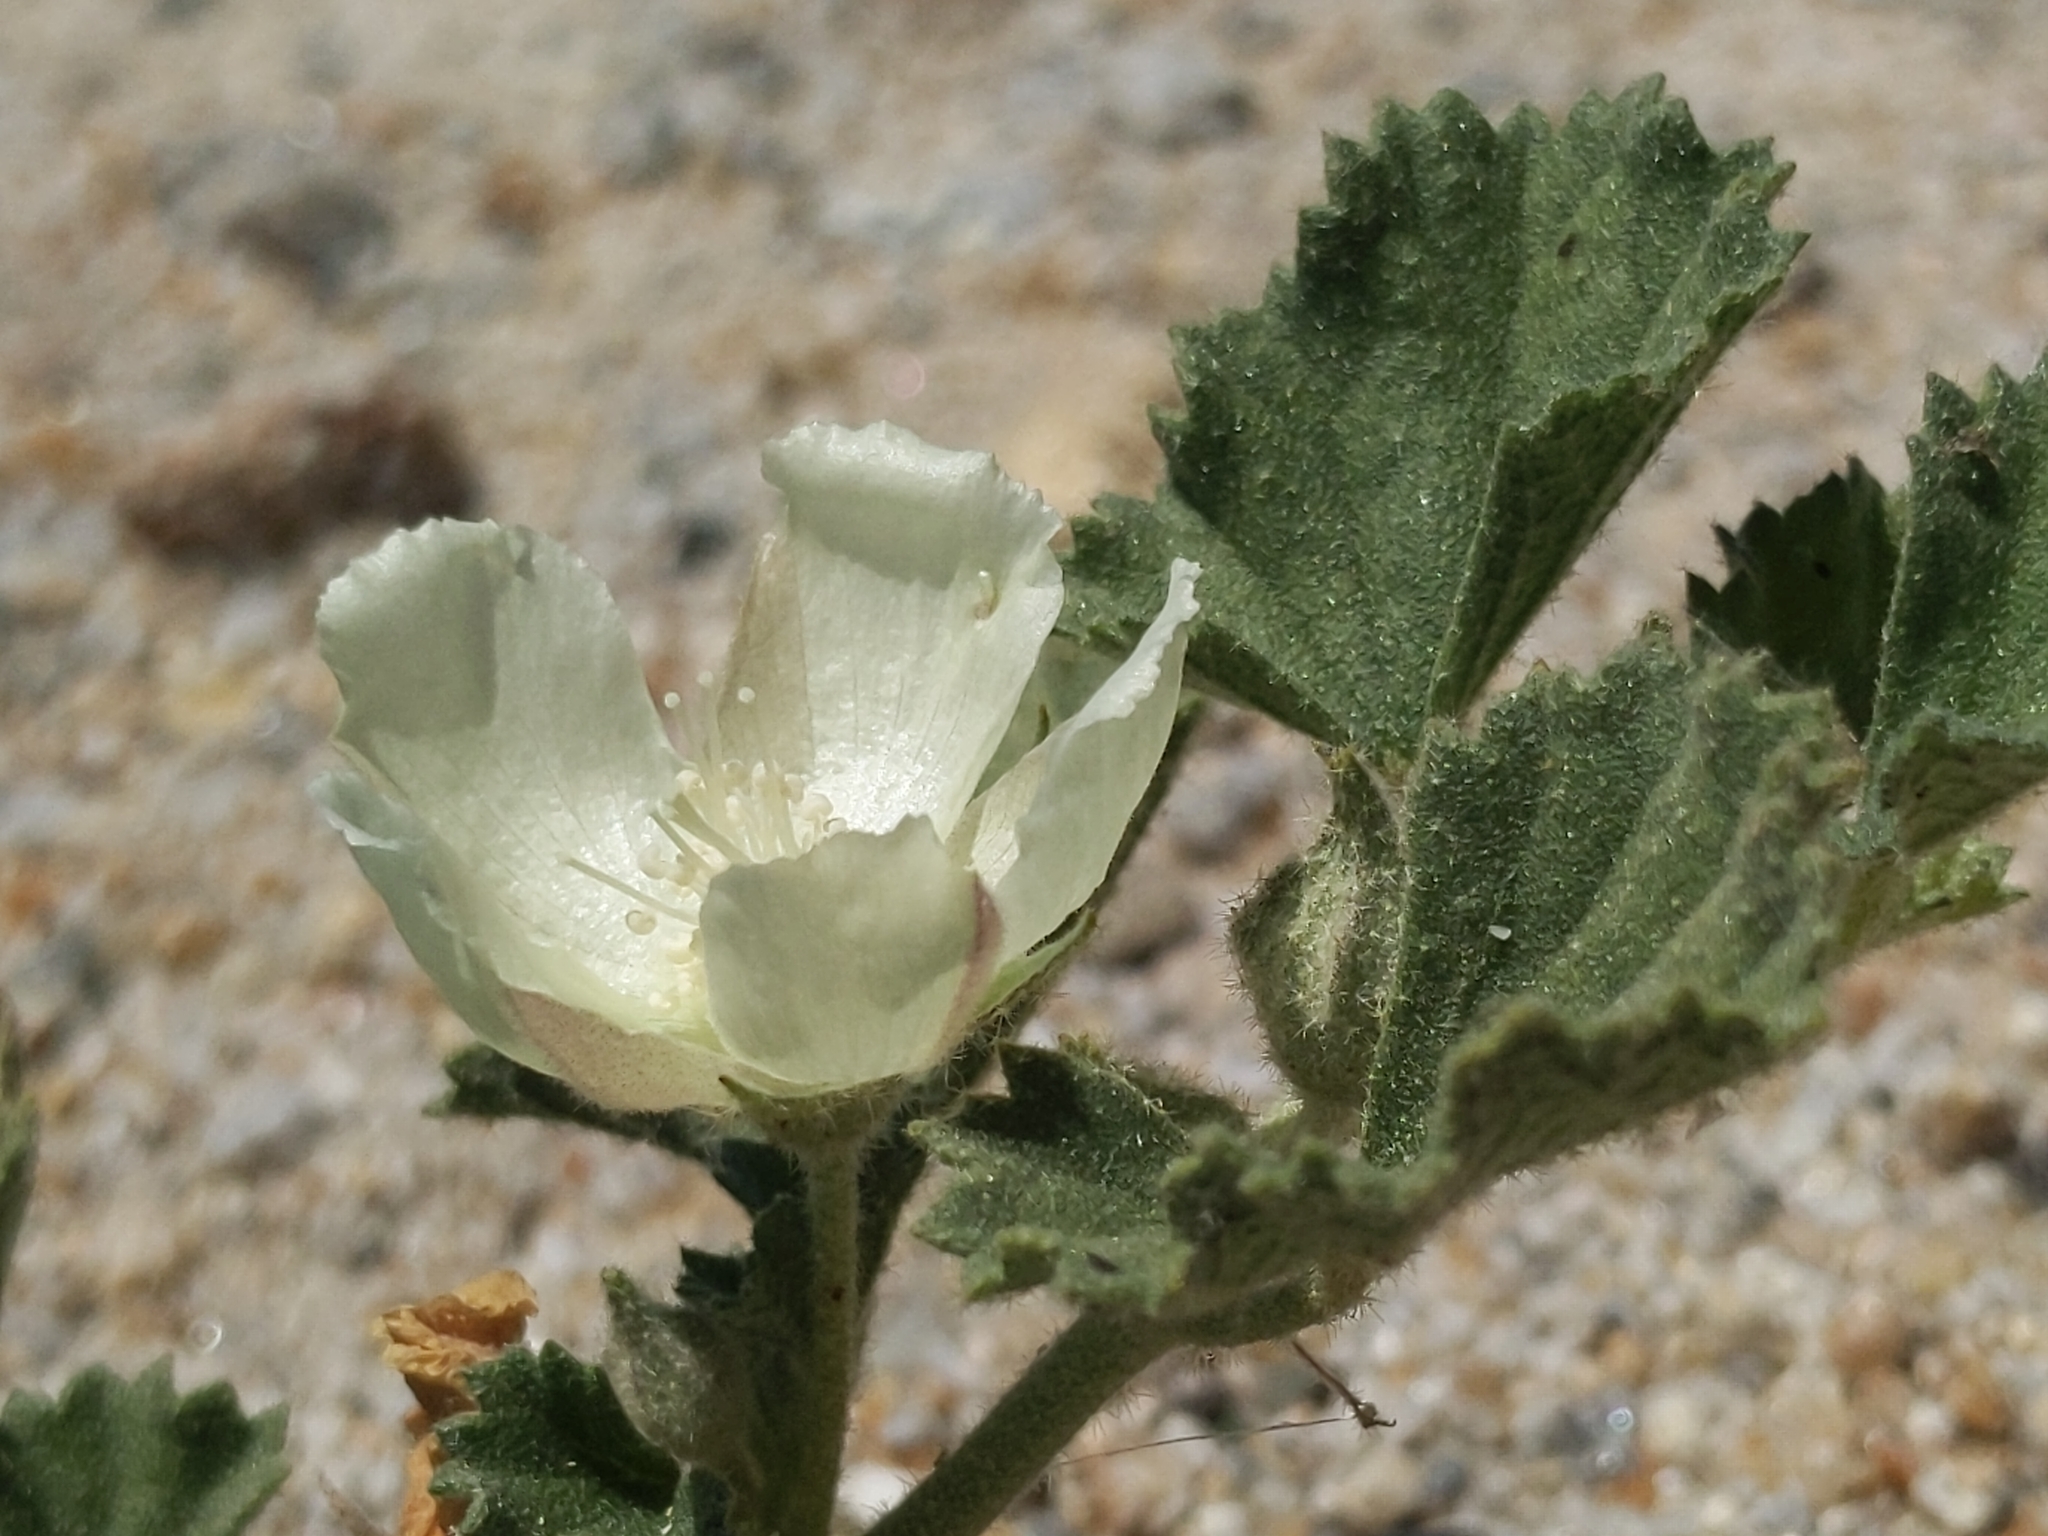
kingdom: Plantae
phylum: Tracheophyta
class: Magnoliopsida
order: Malvales
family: Malvaceae
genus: Malvella
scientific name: Malvella leprosa
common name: Alkali-mallow
